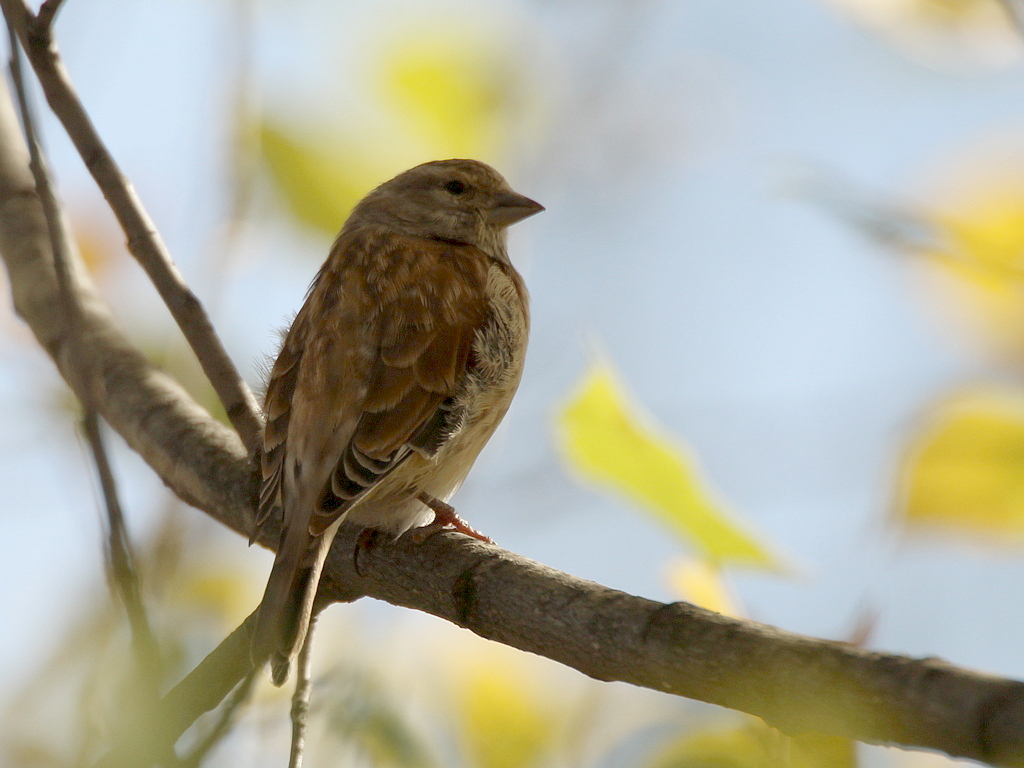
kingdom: Animalia
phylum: Chordata
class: Aves
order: Passeriformes
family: Fringillidae
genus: Linaria
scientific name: Linaria cannabina
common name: Common linnet
